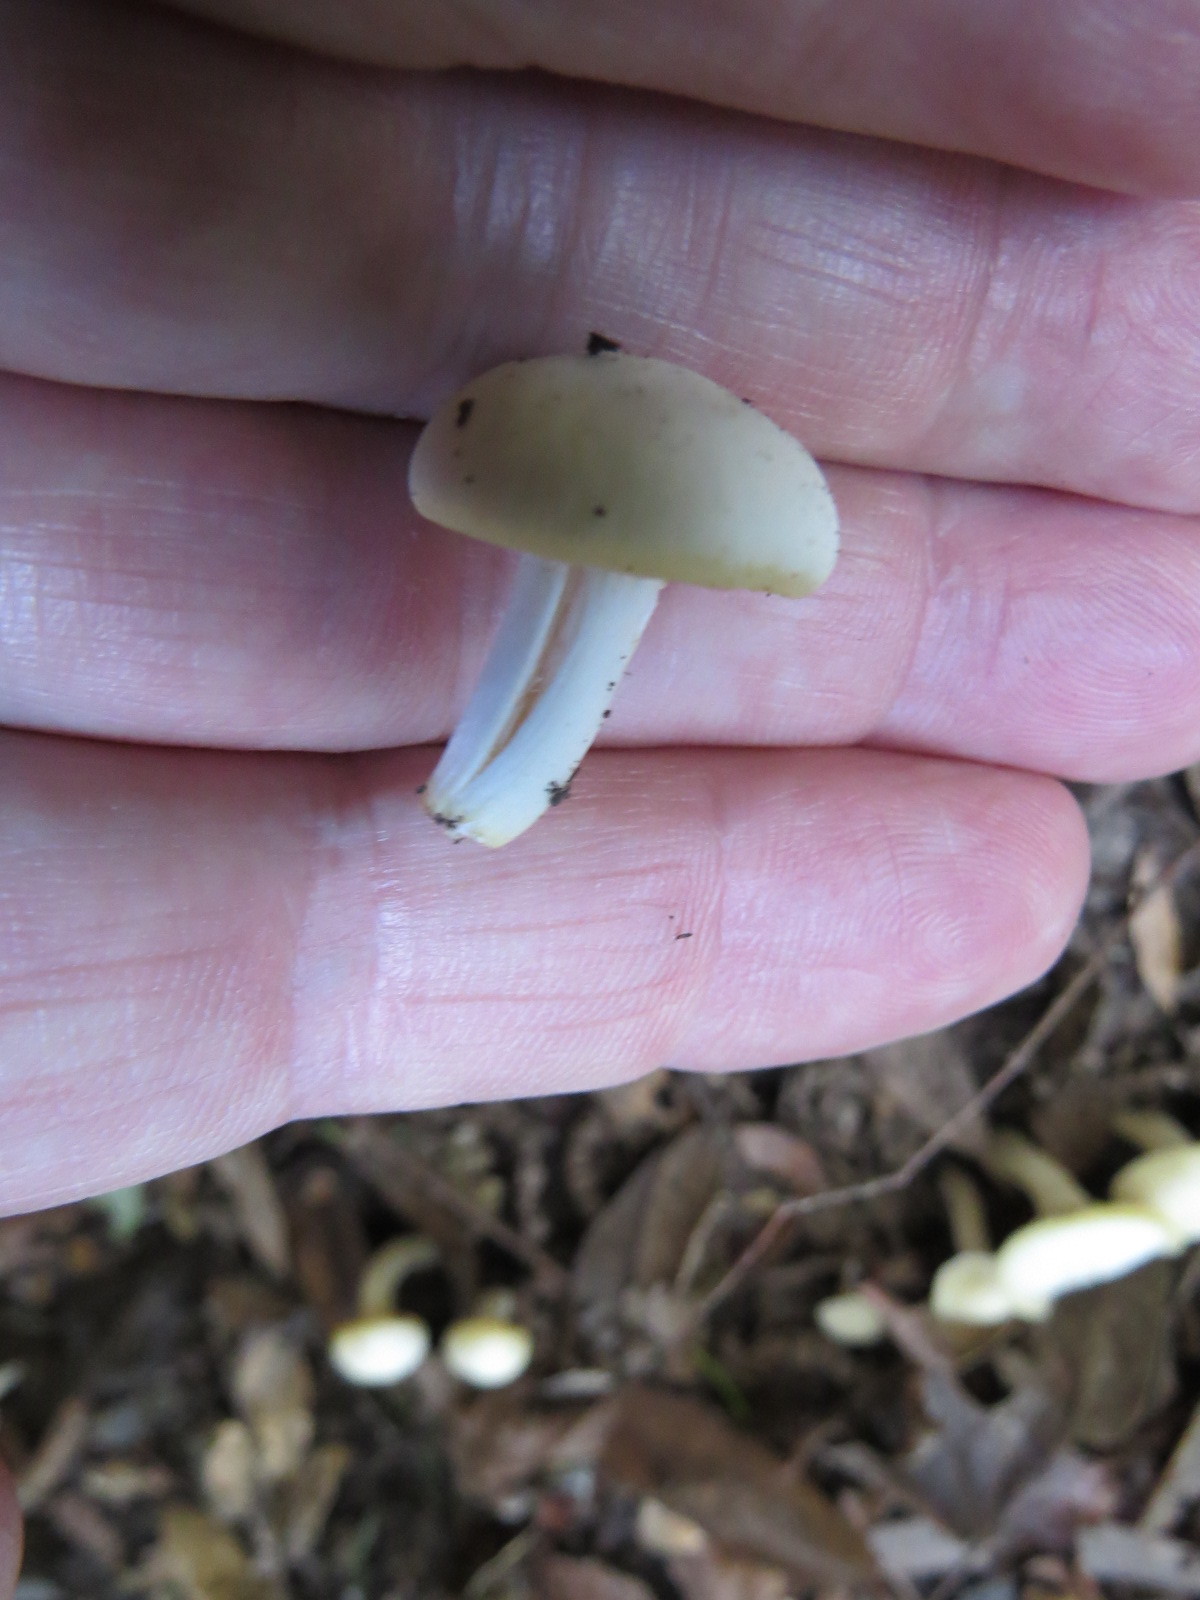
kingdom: Fungi
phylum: Basidiomycota
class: Agaricomycetes
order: Agaricales
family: Hygrophoraceae
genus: Cuphophyllus
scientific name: Cuphophyllus virgineus
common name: Snowy waxcap
